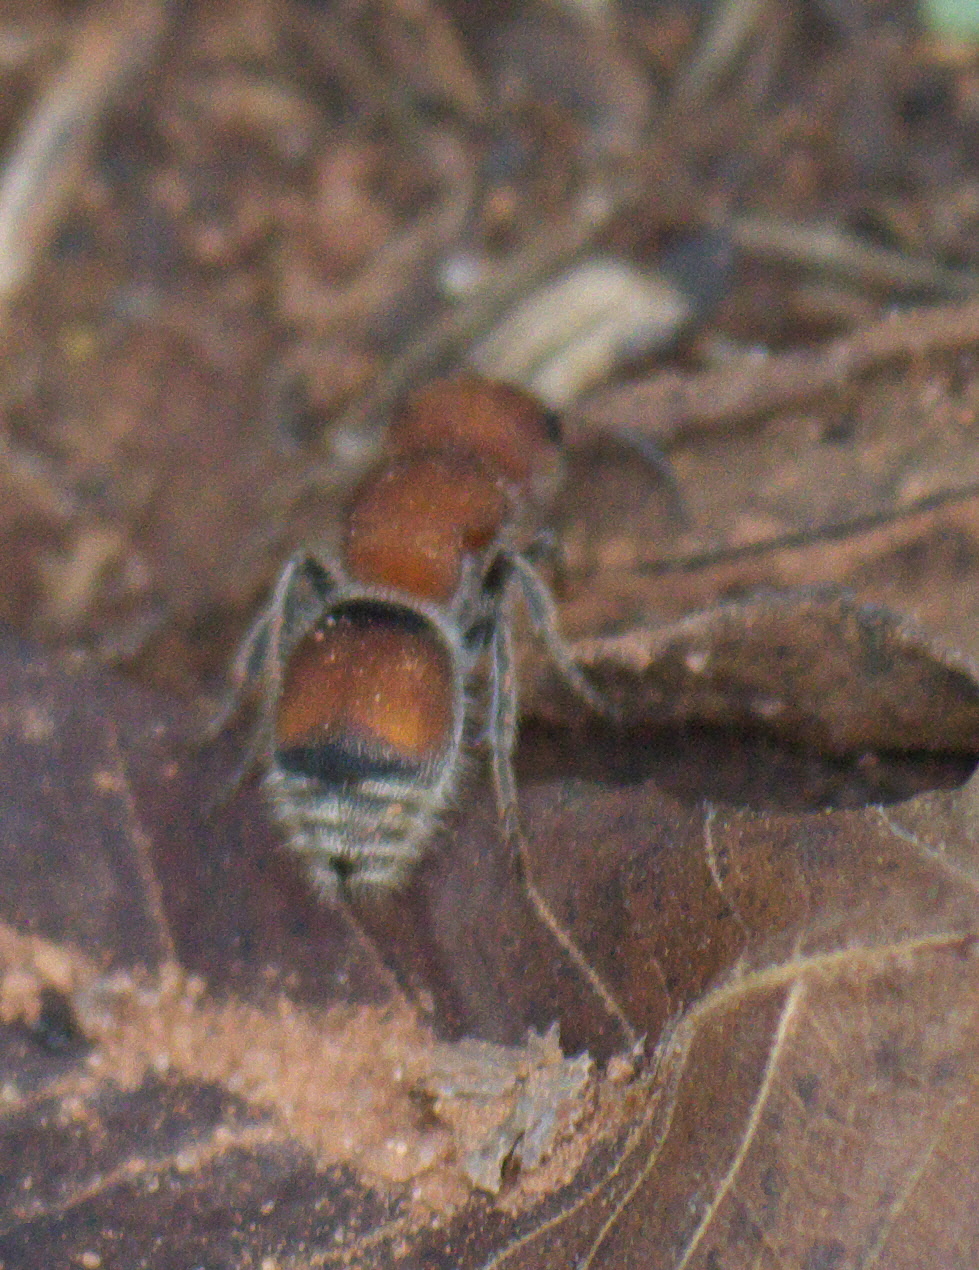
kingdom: Animalia
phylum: Arthropoda
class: Insecta
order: Hymenoptera
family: Mutillidae
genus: Pseudomethoca
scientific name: Pseudomethoca
